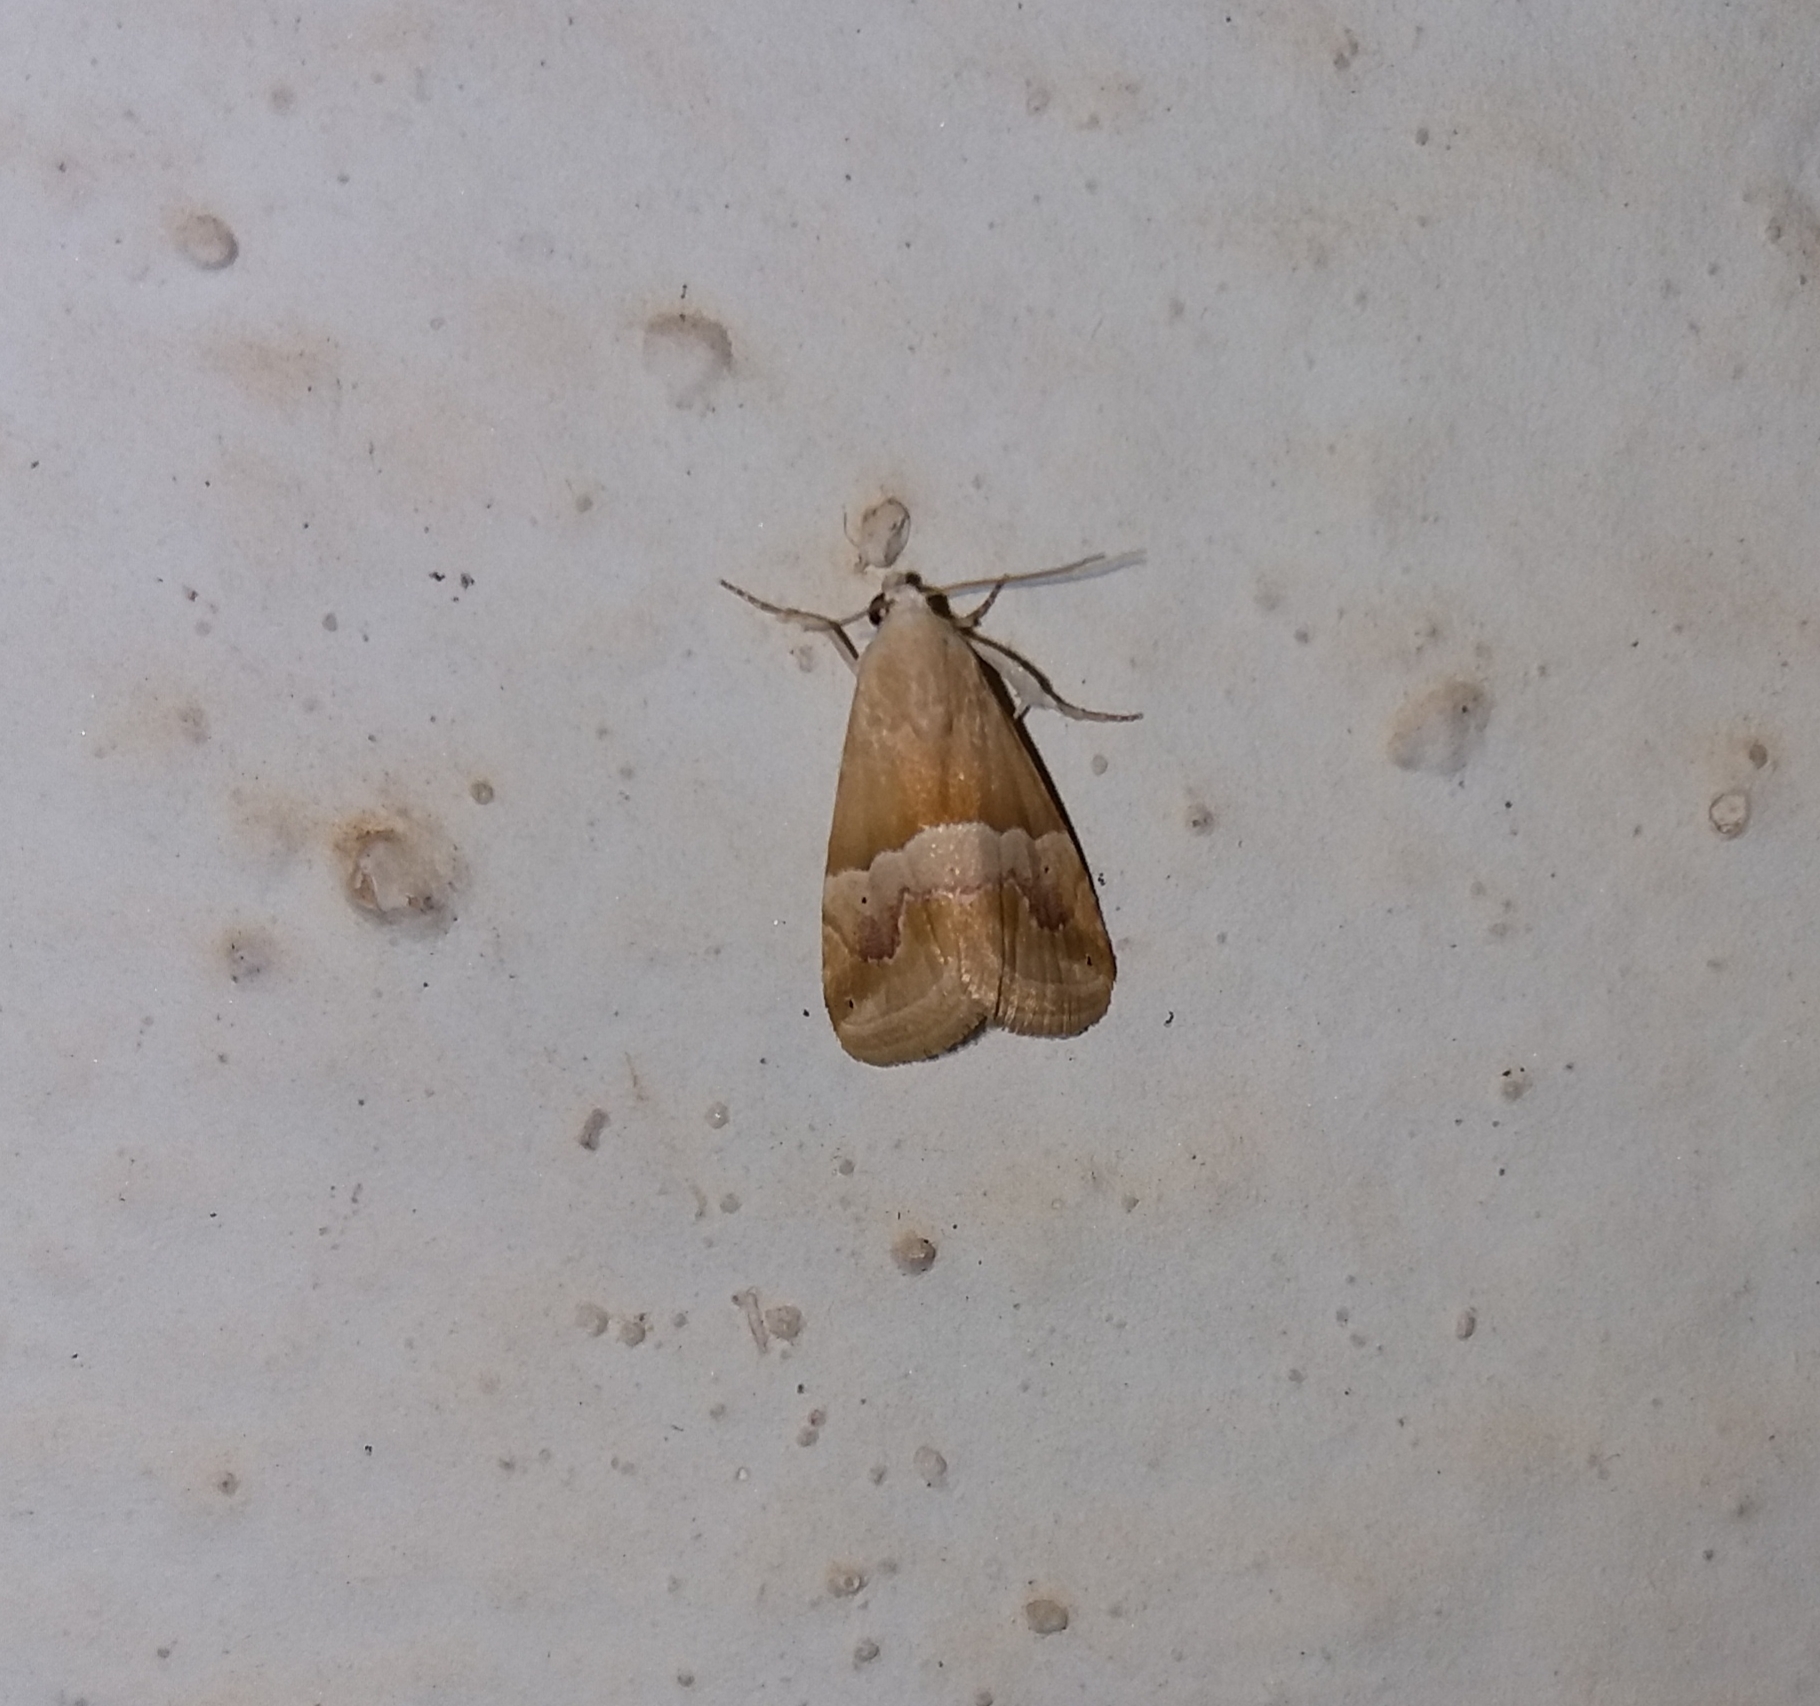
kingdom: Animalia
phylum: Arthropoda
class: Insecta
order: Lepidoptera
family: Noctuidae
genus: Eublemma
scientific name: Eublemma parva
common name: Small marbled
